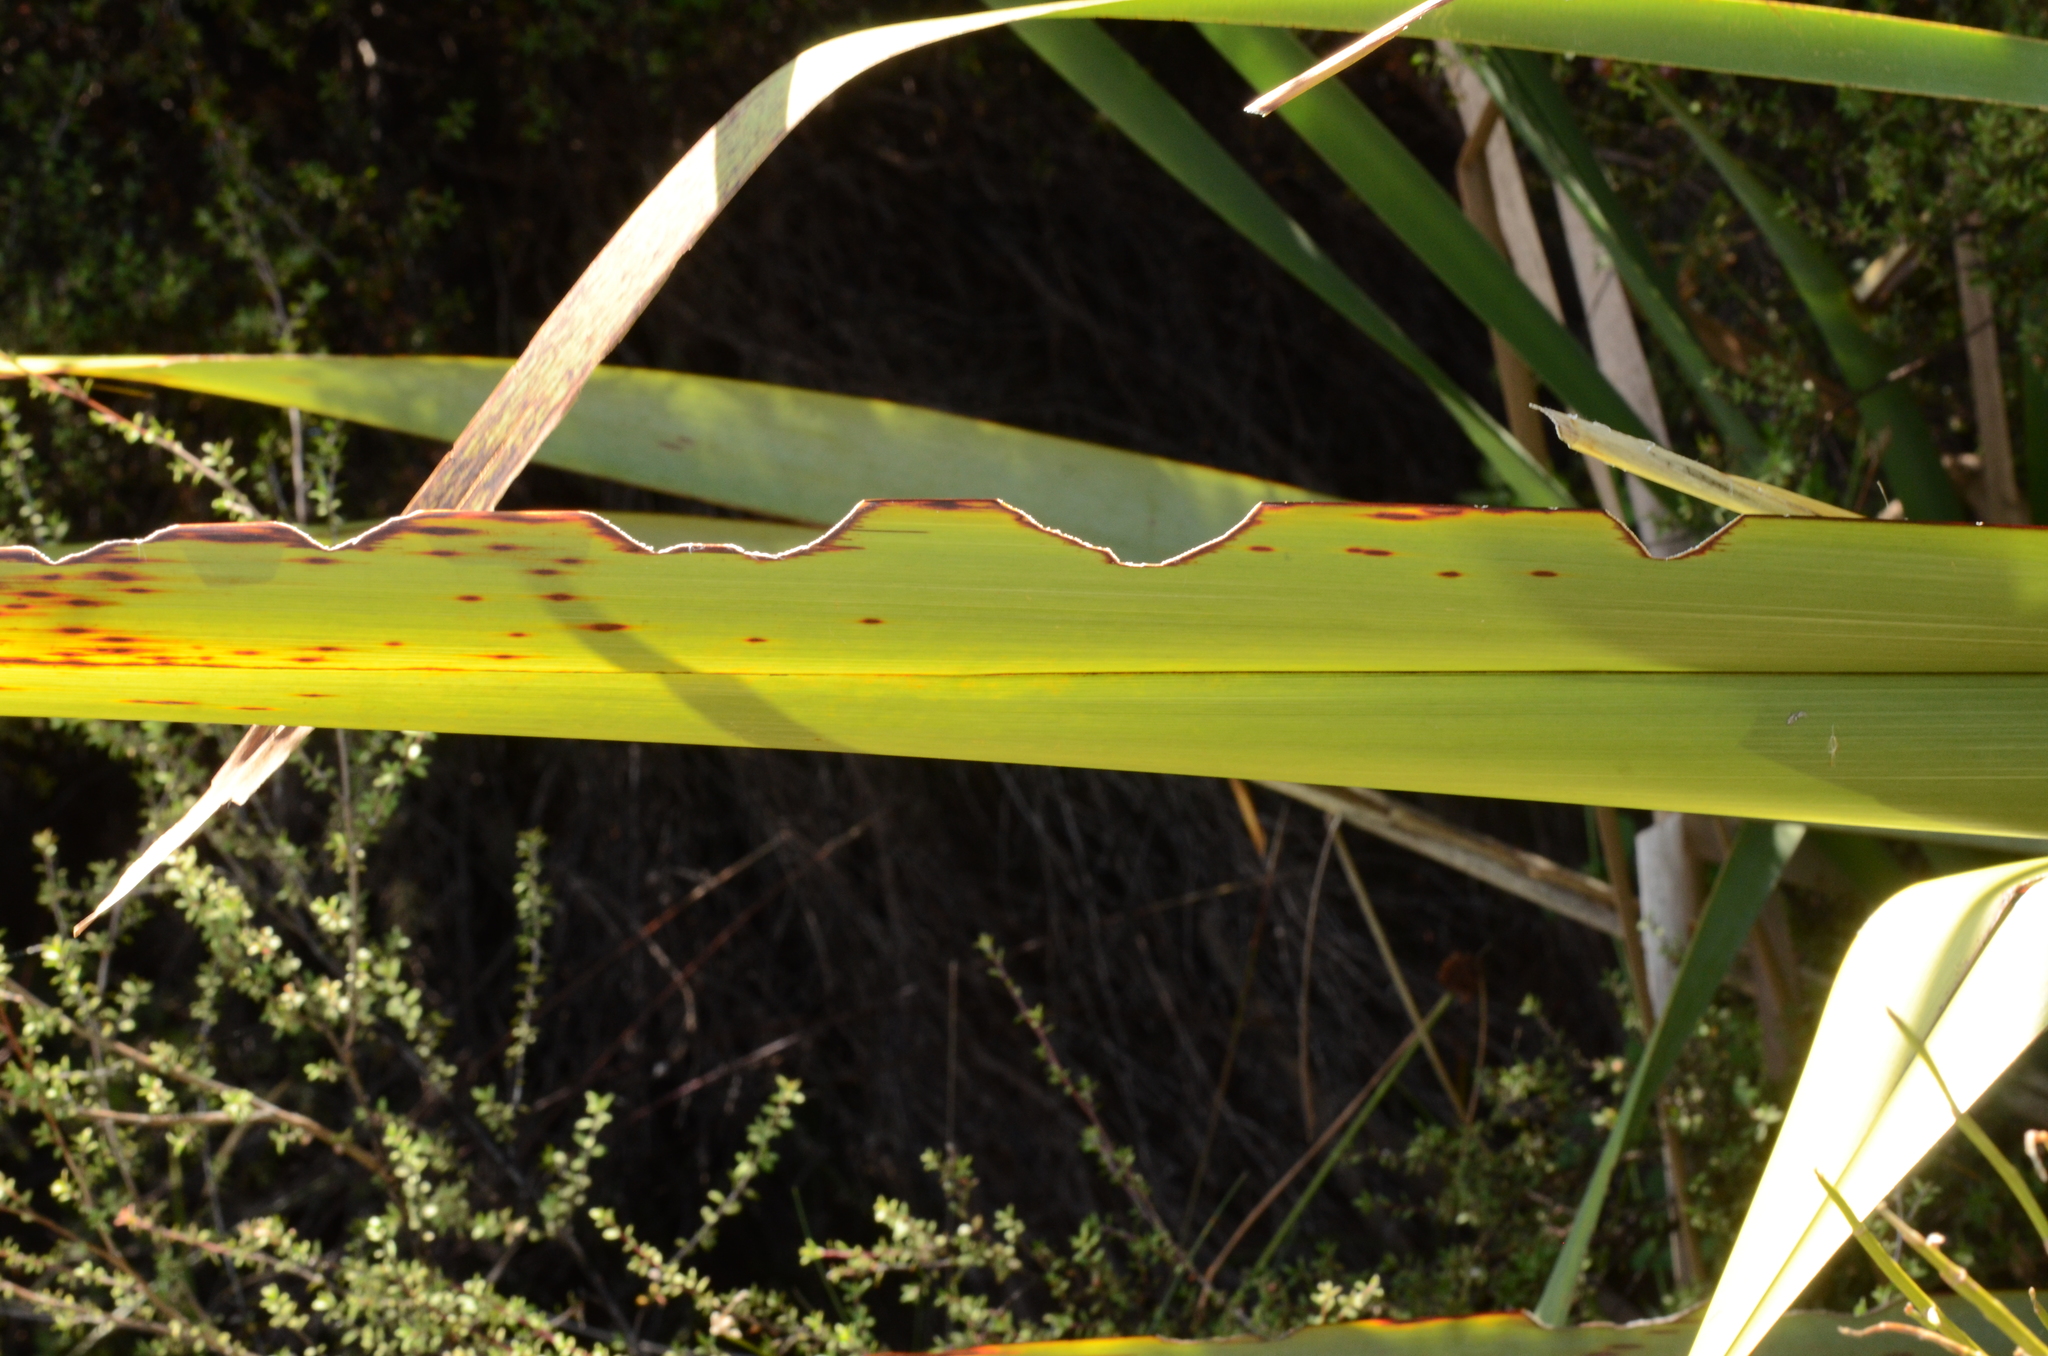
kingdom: Animalia
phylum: Arthropoda
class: Insecta
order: Lepidoptera
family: Noctuidae
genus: Ichneutica
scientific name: Ichneutica
